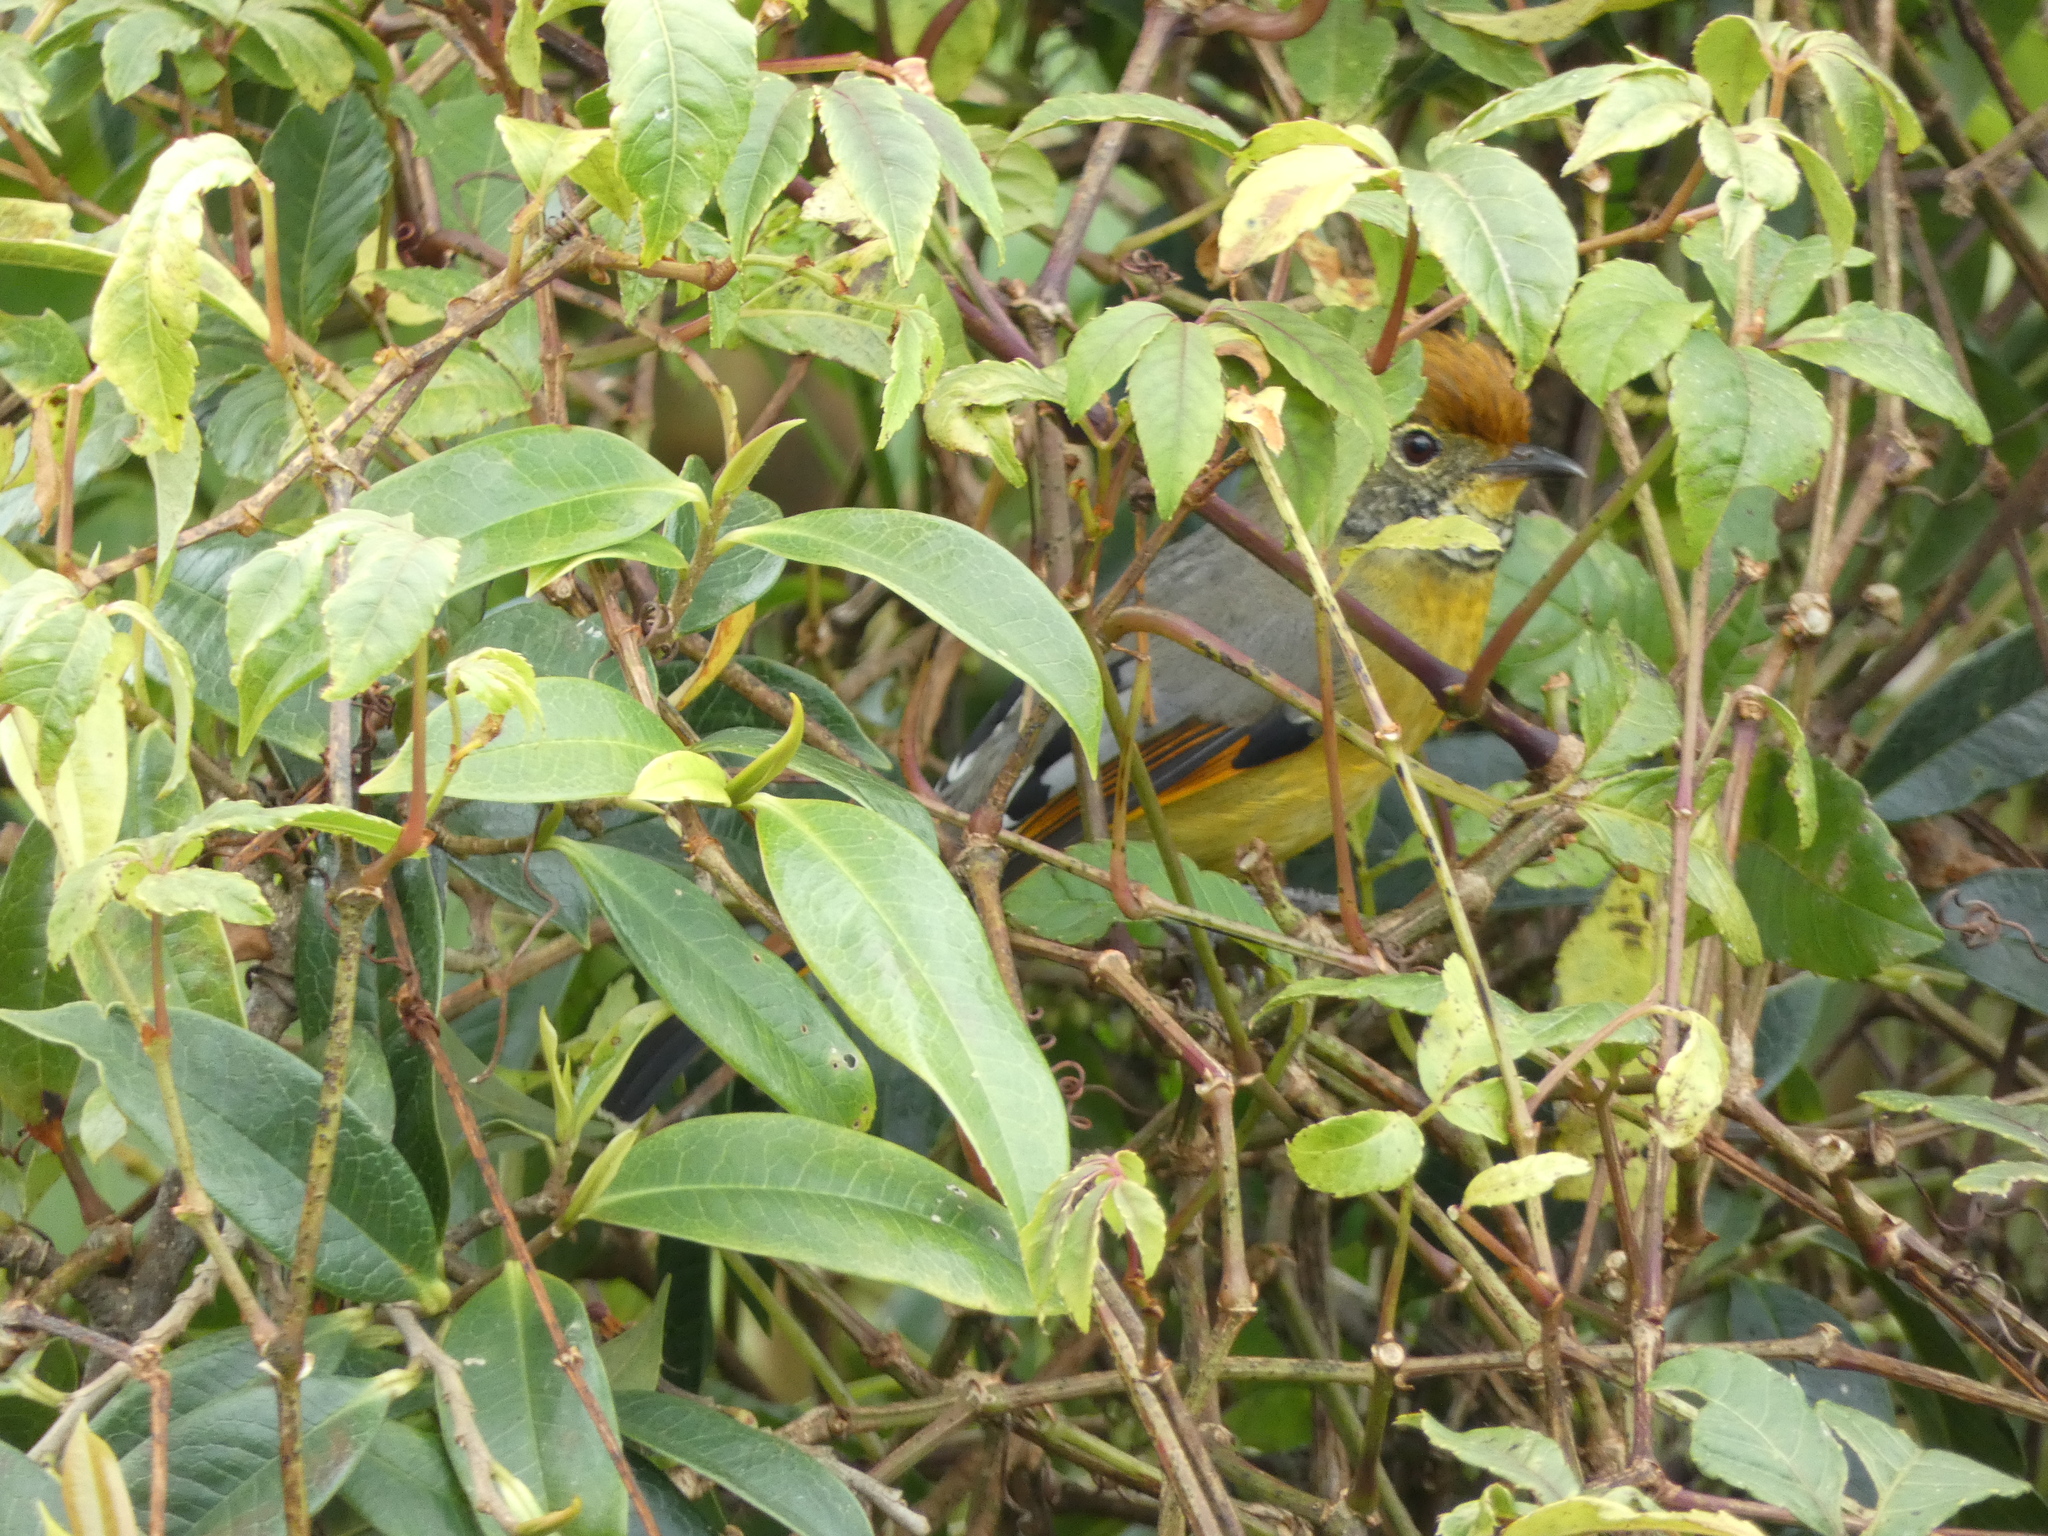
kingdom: Animalia
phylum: Chordata
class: Aves
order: Passeriformes
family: Leiothrichidae
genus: Minla
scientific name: Minla strigula
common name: Chestnut-tailed minla
